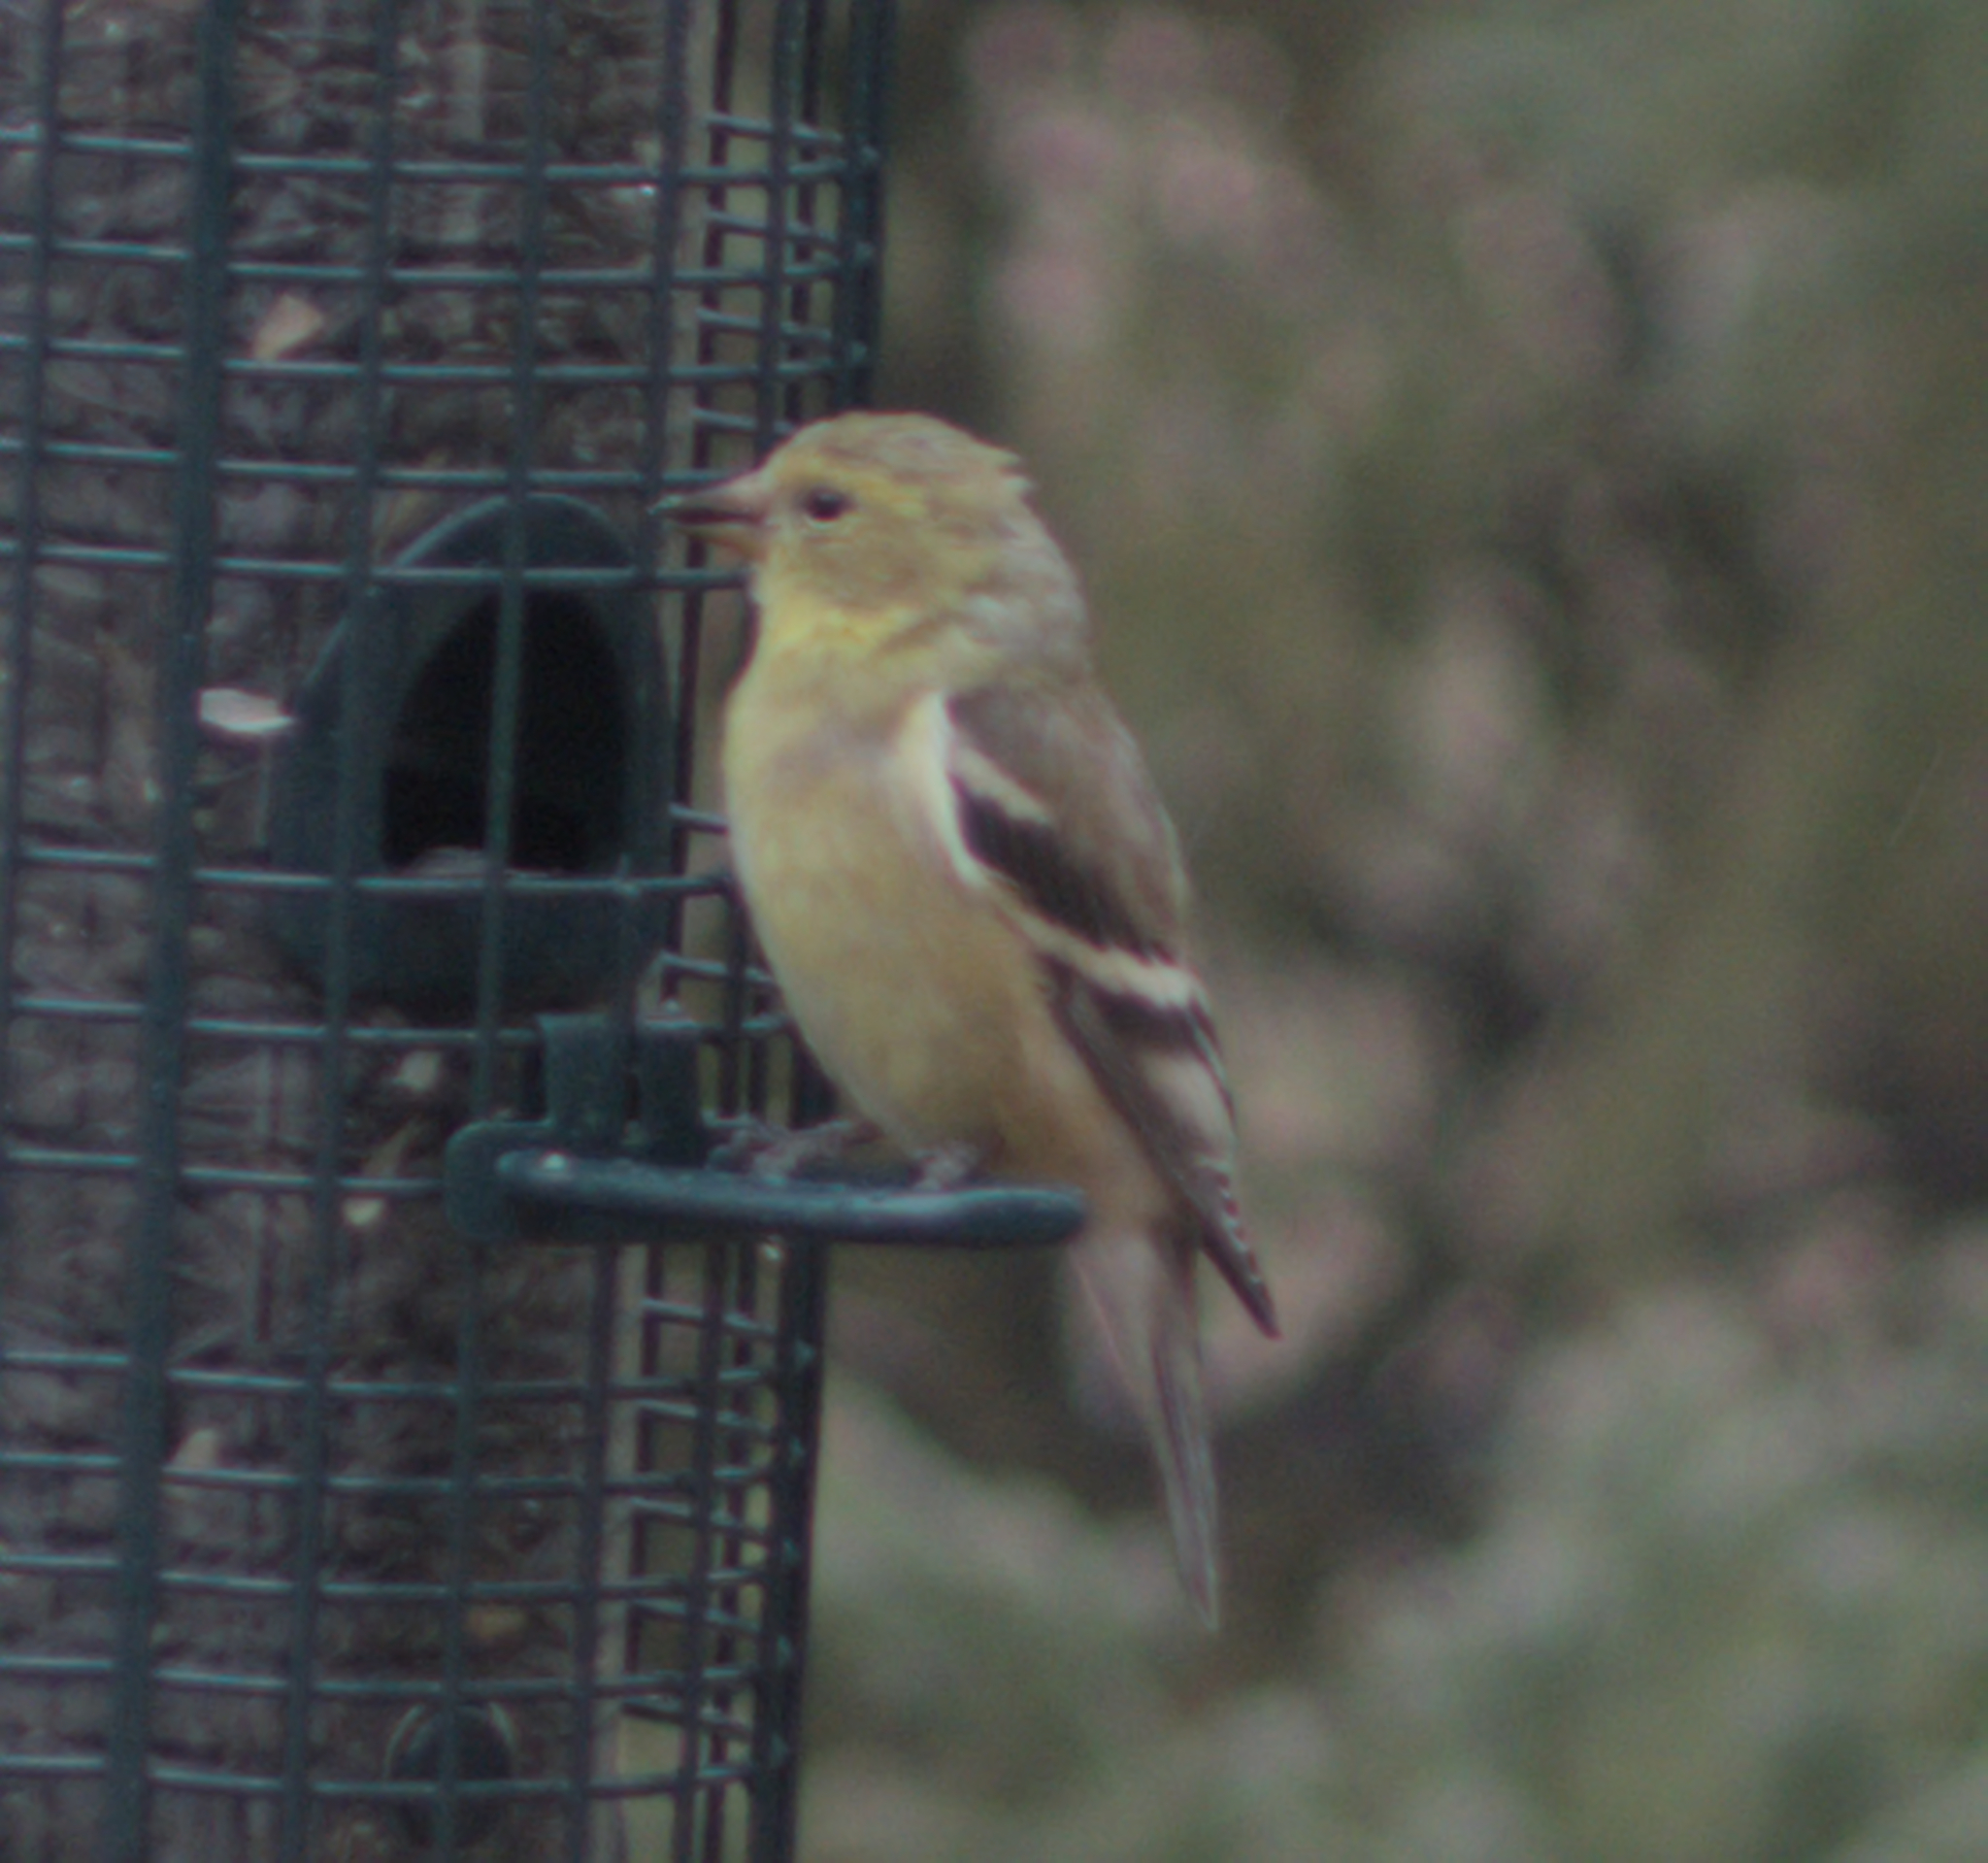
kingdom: Animalia
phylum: Chordata
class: Aves
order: Passeriformes
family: Fringillidae
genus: Spinus
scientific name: Spinus tristis
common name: American goldfinch
